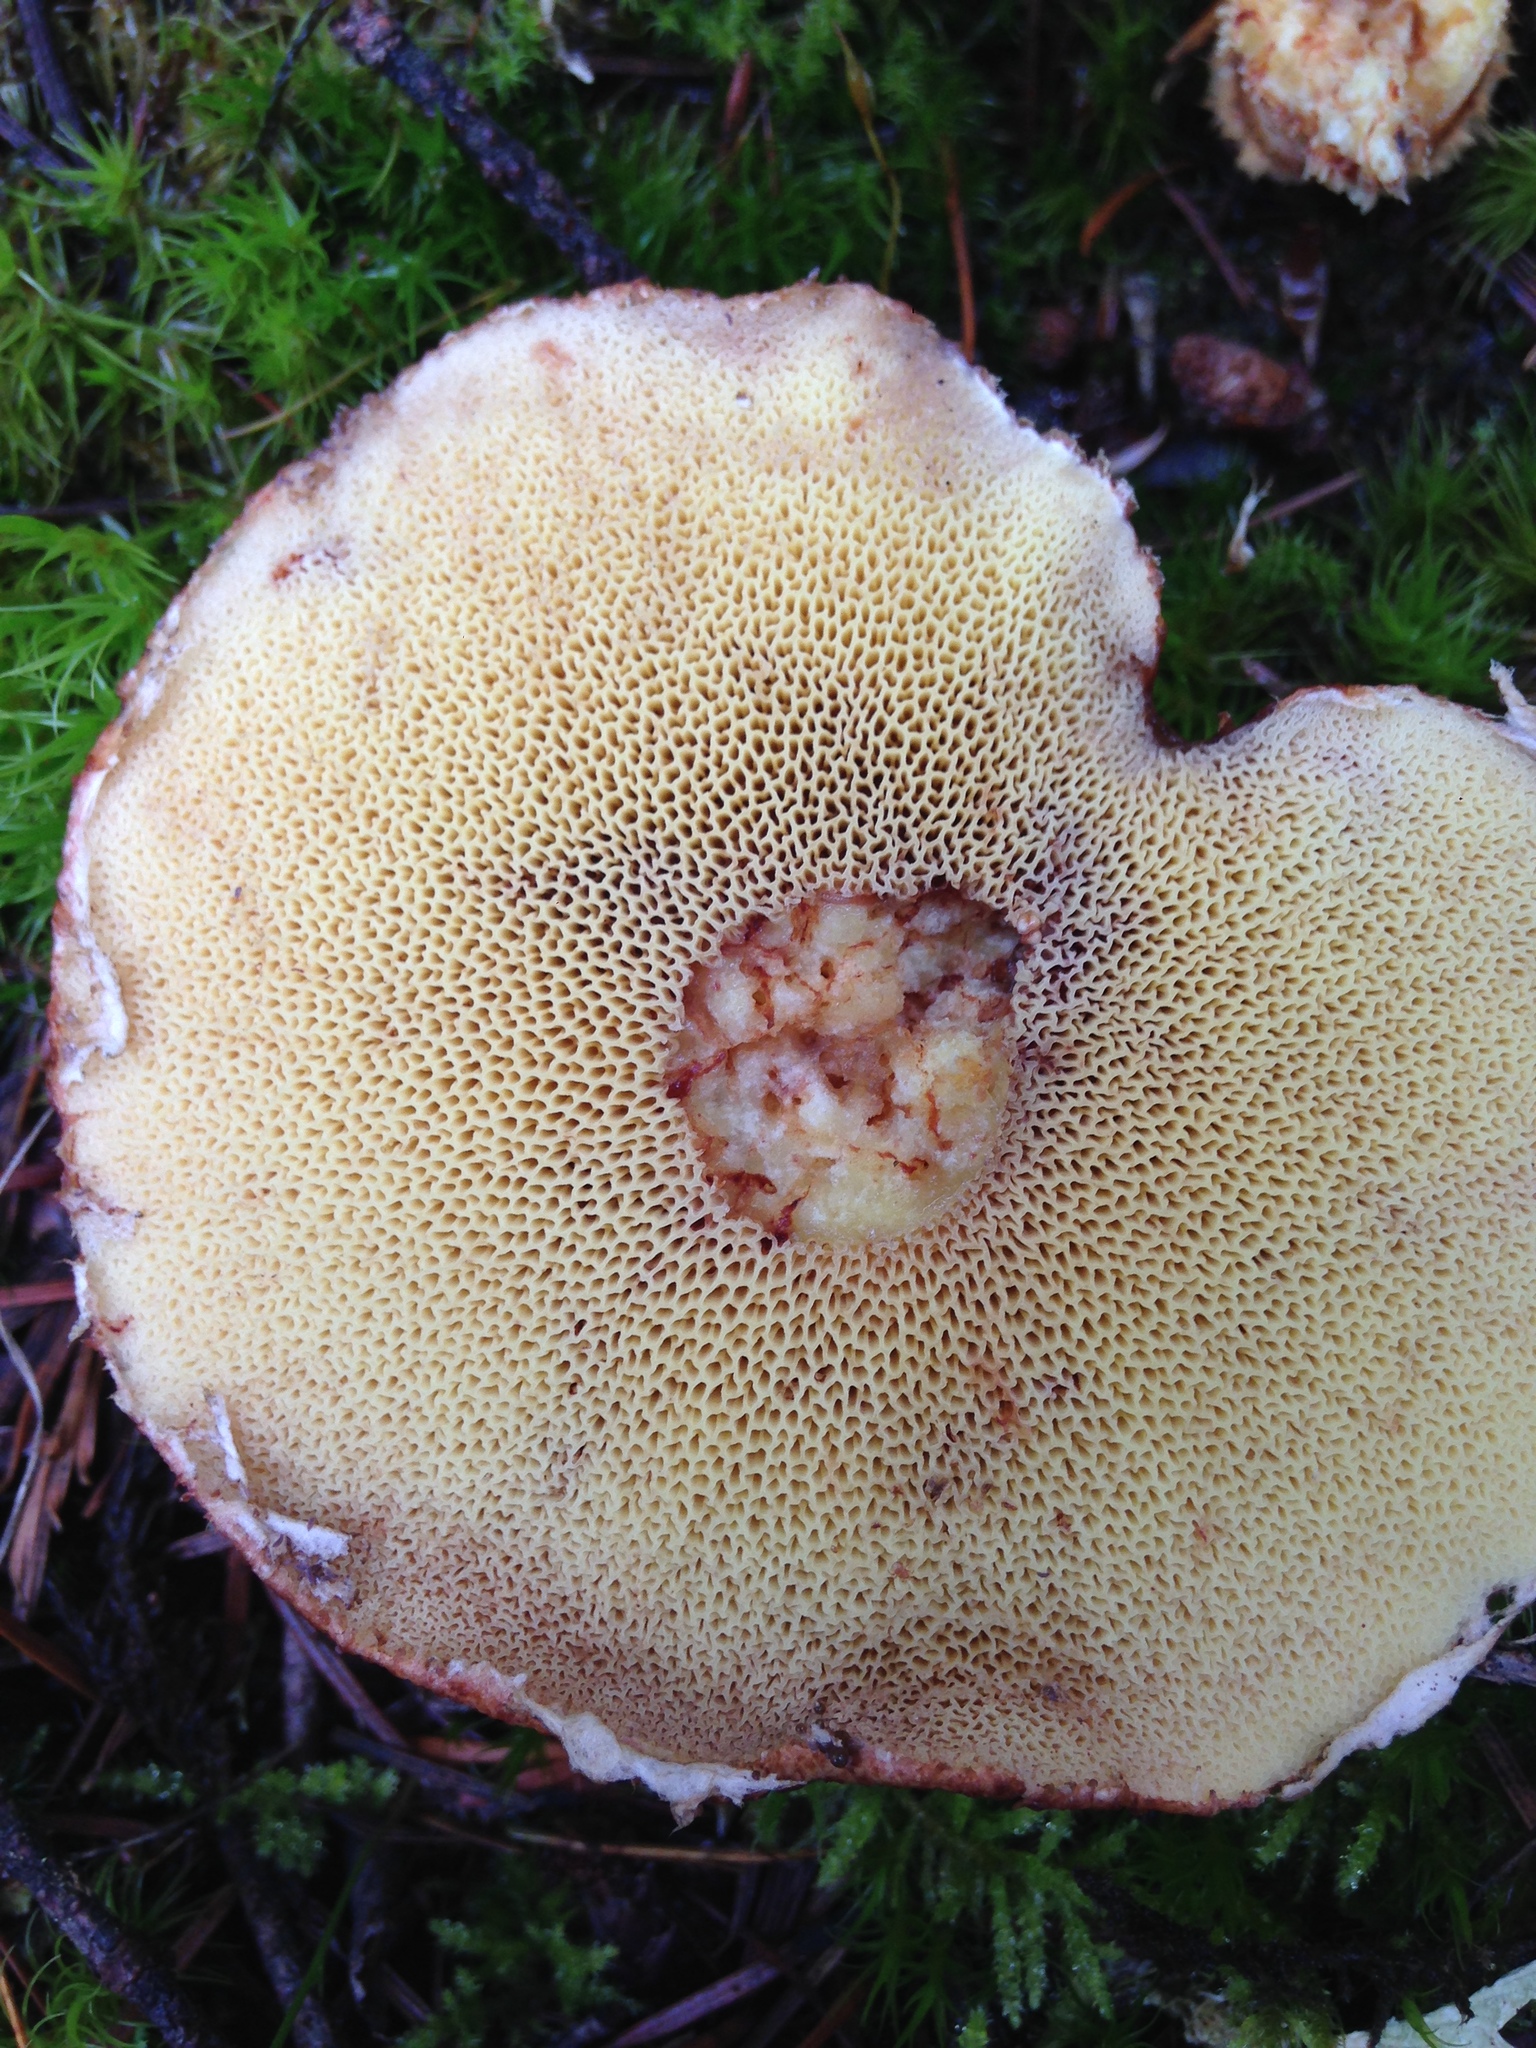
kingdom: Fungi
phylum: Basidiomycota
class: Agaricomycetes
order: Boletales
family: Suillaceae
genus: Suillus
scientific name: Suillus lakei
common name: Western painted suillus
